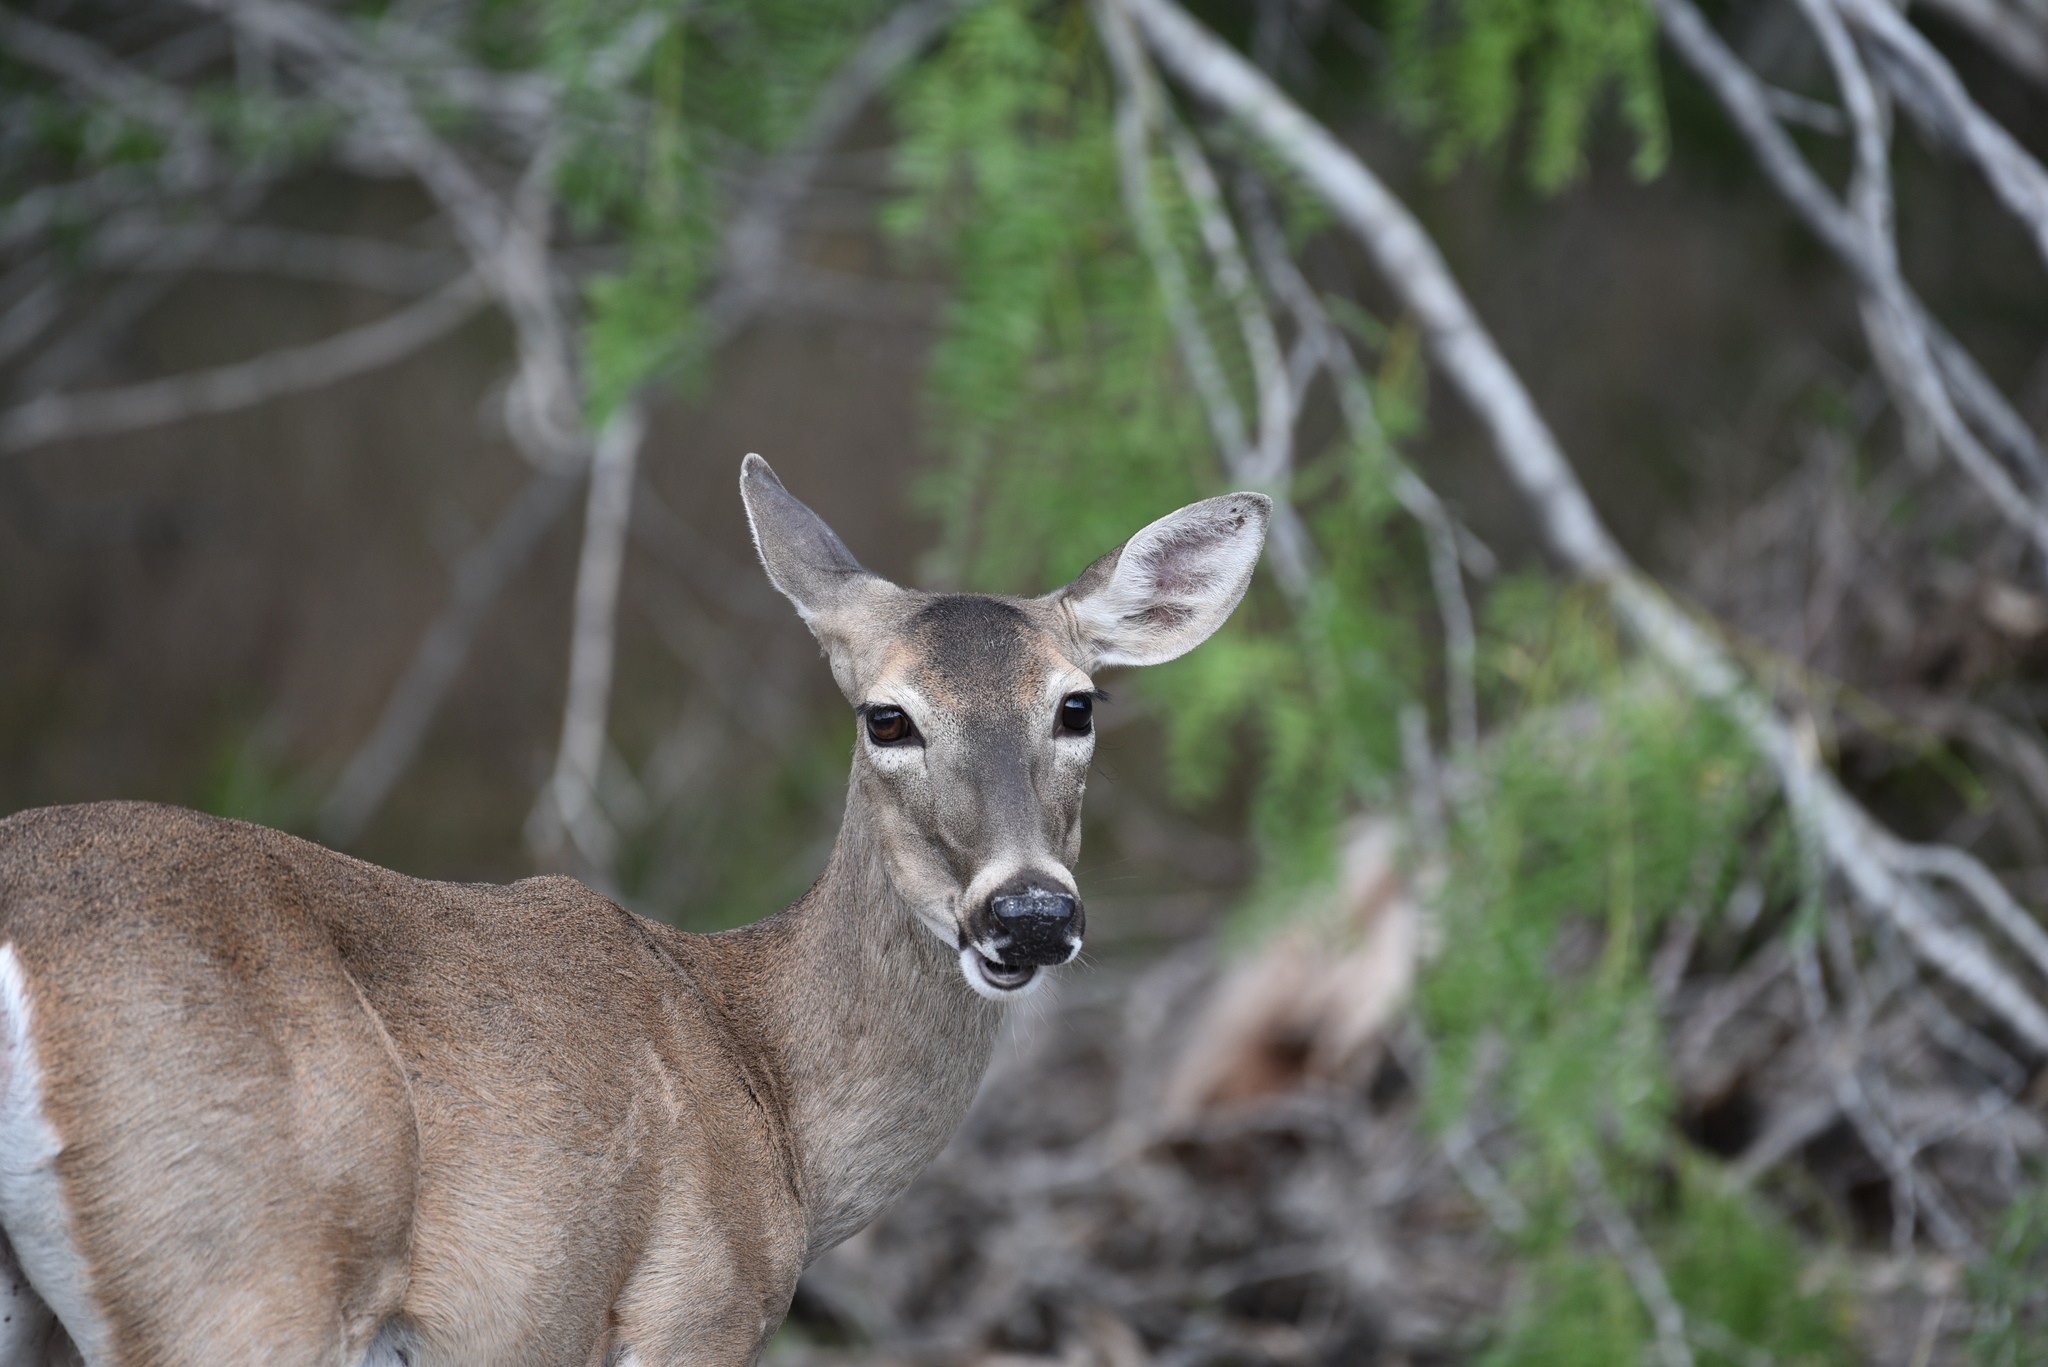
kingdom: Animalia
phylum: Chordata
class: Mammalia
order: Artiodactyla
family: Cervidae
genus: Odocoileus
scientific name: Odocoileus virginianus
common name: White-tailed deer
